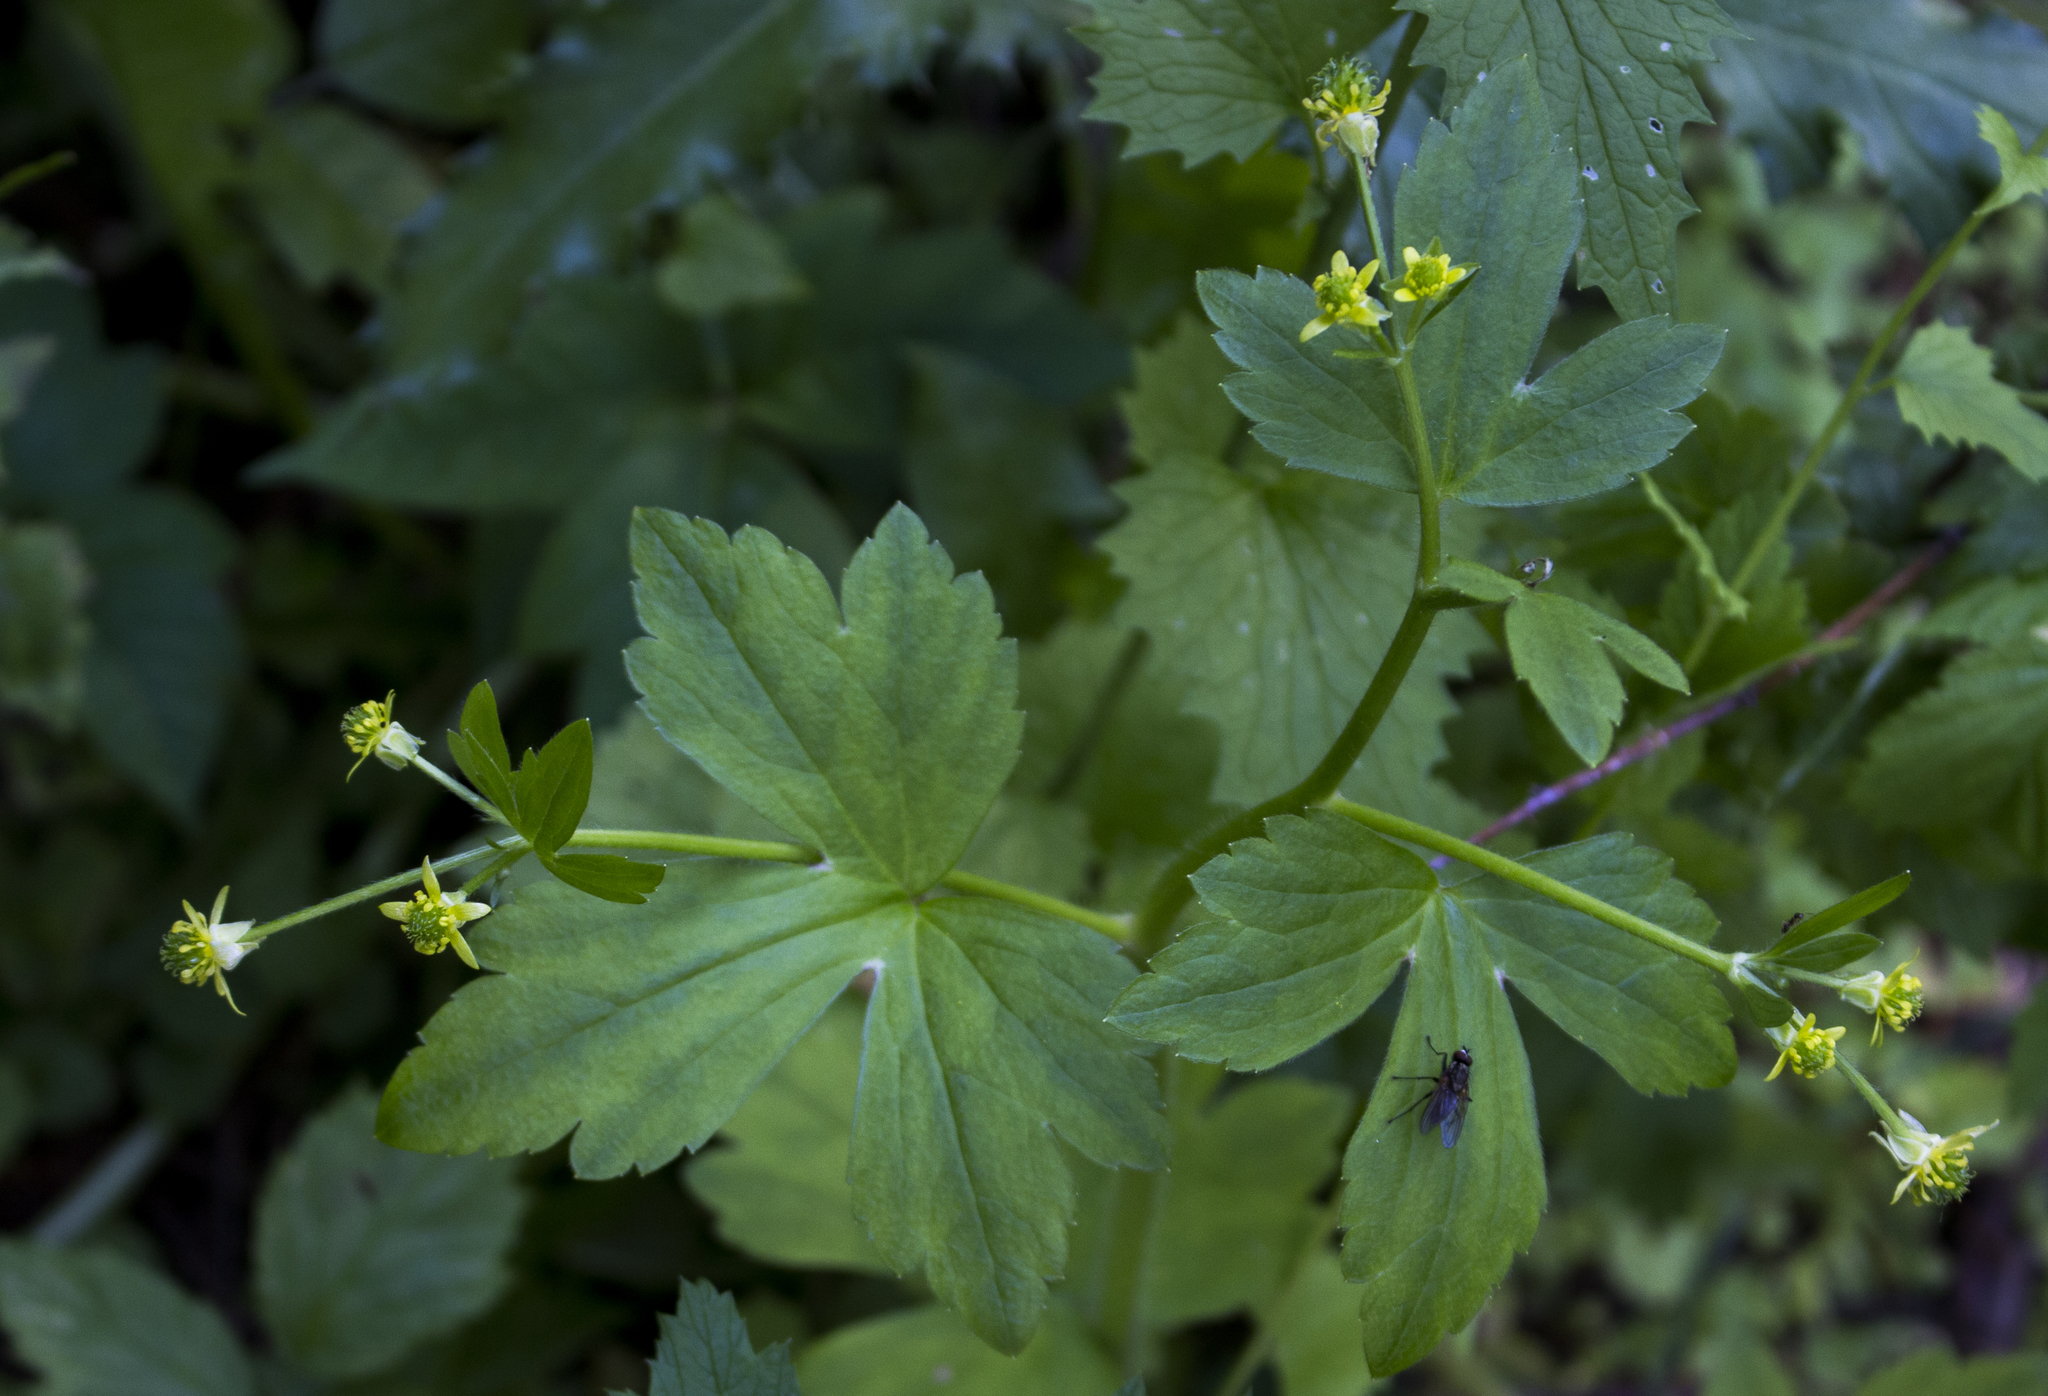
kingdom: Plantae
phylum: Tracheophyta
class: Magnoliopsida
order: Ranunculales
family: Ranunculaceae
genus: Ranunculus
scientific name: Ranunculus recurvatus
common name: Blisterwort
